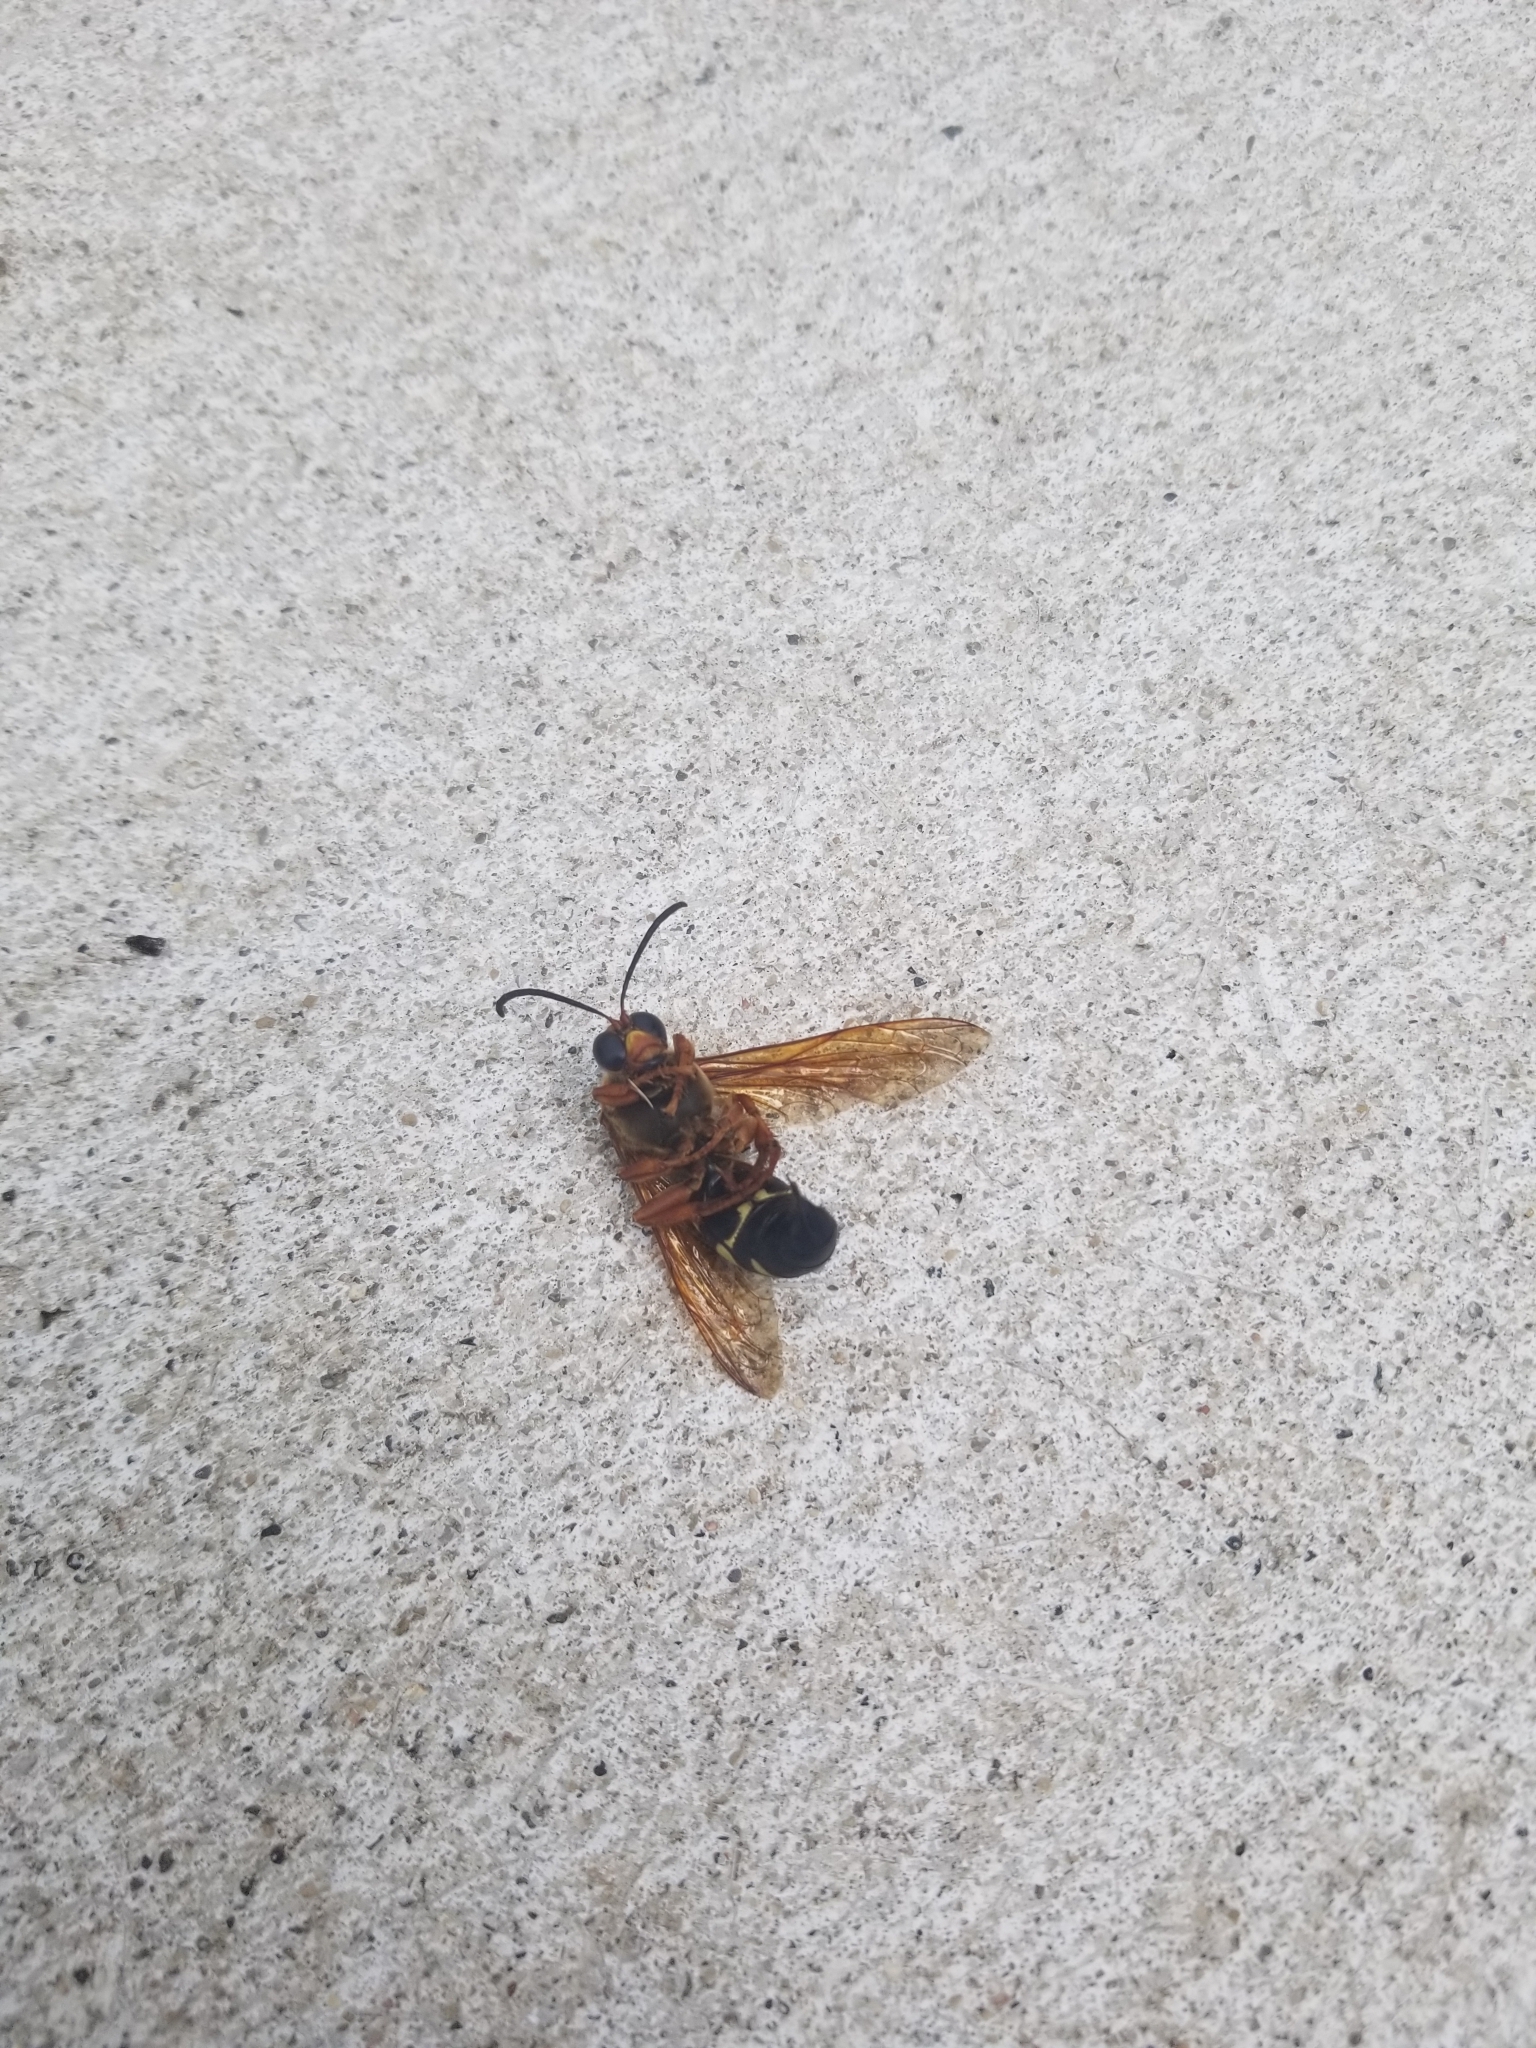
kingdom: Animalia
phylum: Arthropoda
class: Insecta
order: Hymenoptera
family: Crabronidae
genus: Sphecius
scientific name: Sphecius speciosus
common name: Cicada killer
